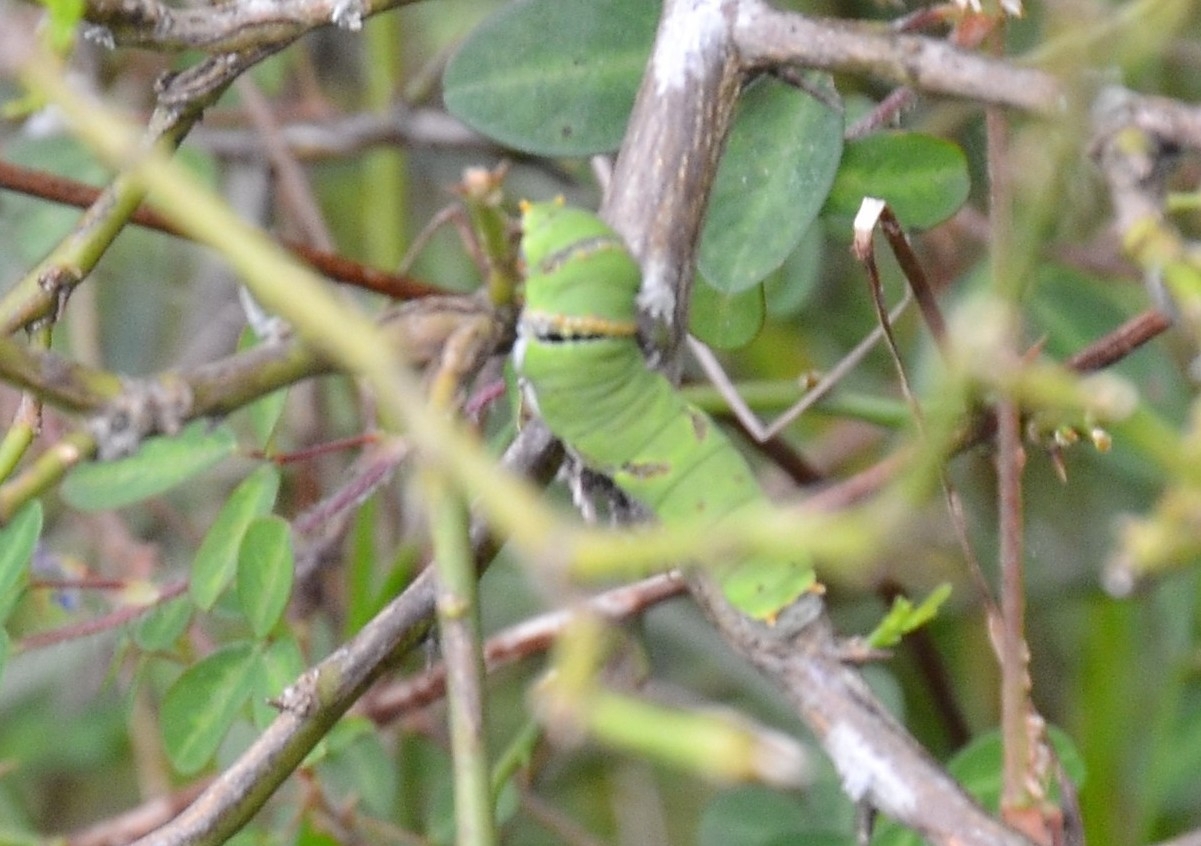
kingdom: Animalia
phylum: Arthropoda
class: Insecta
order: Lepidoptera
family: Papilionidae
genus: Papilio
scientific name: Papilio demoleus
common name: Lime butterfly
